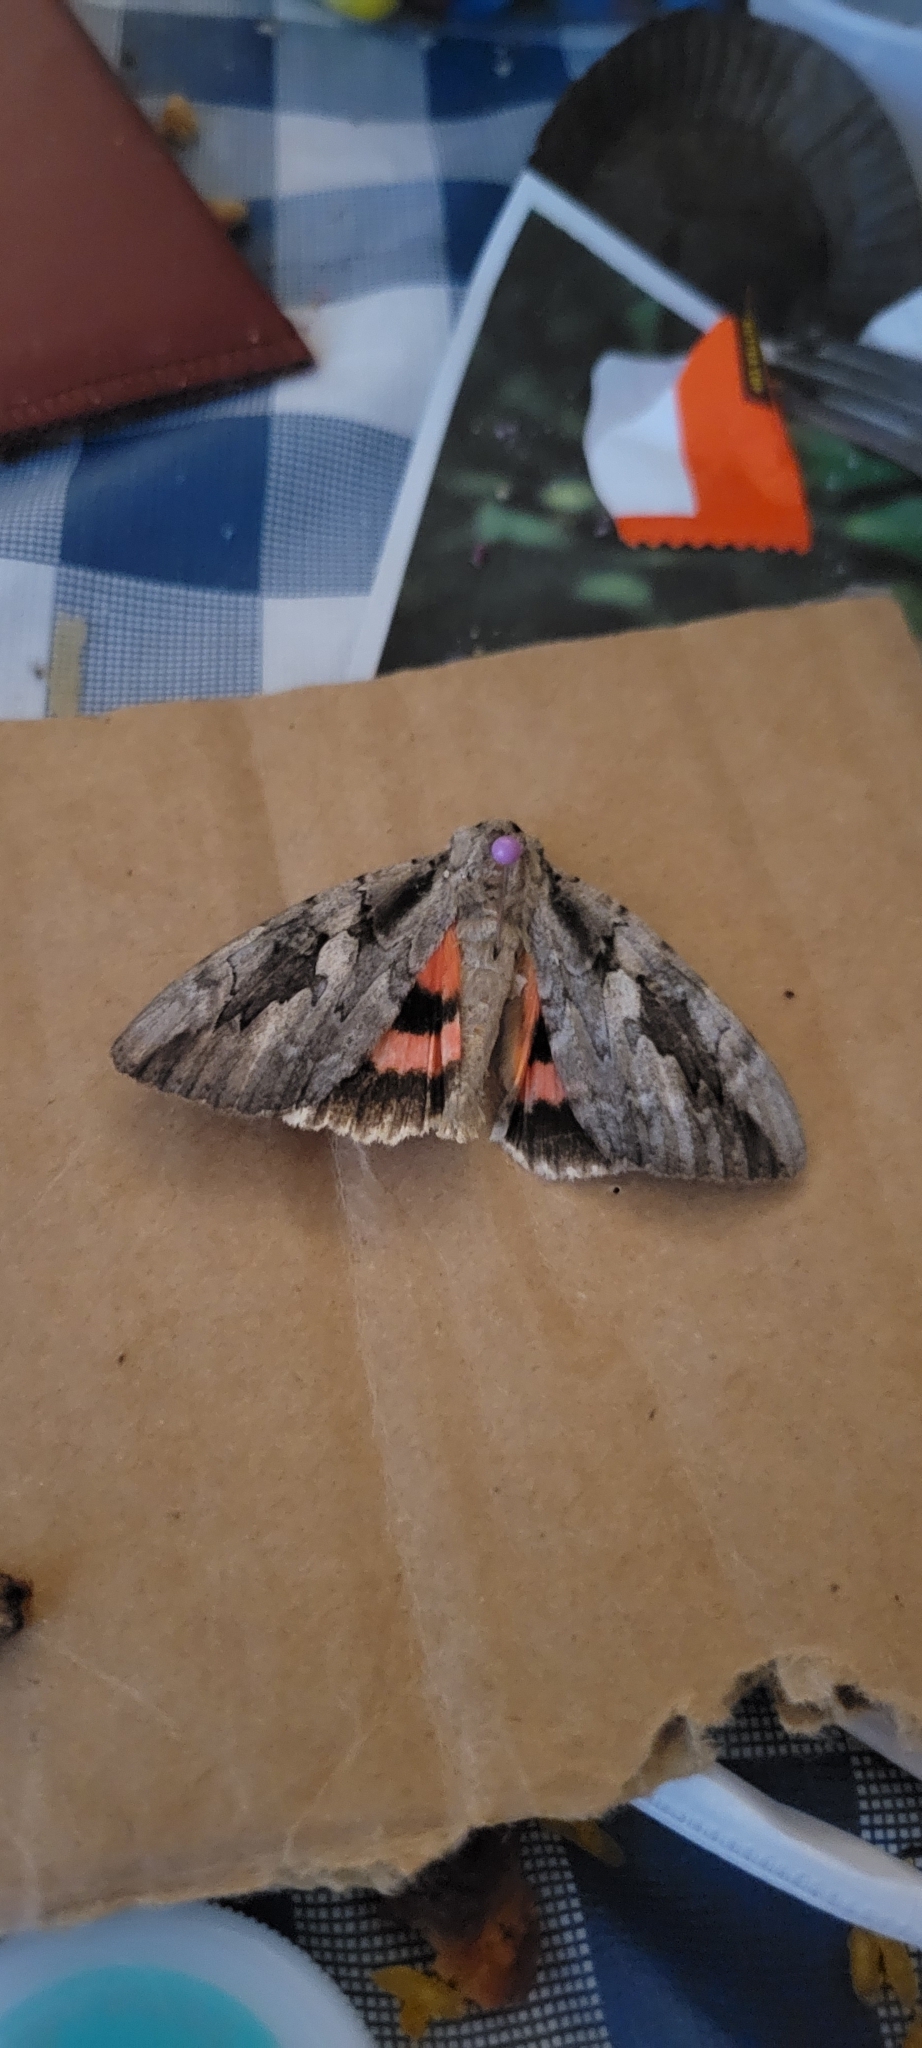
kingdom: Animalia
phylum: Arthropoda
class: Insecta
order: Lepidoptera
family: Erebidae
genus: Catocala
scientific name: Catocala amatrix
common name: Sweetheart underwing
